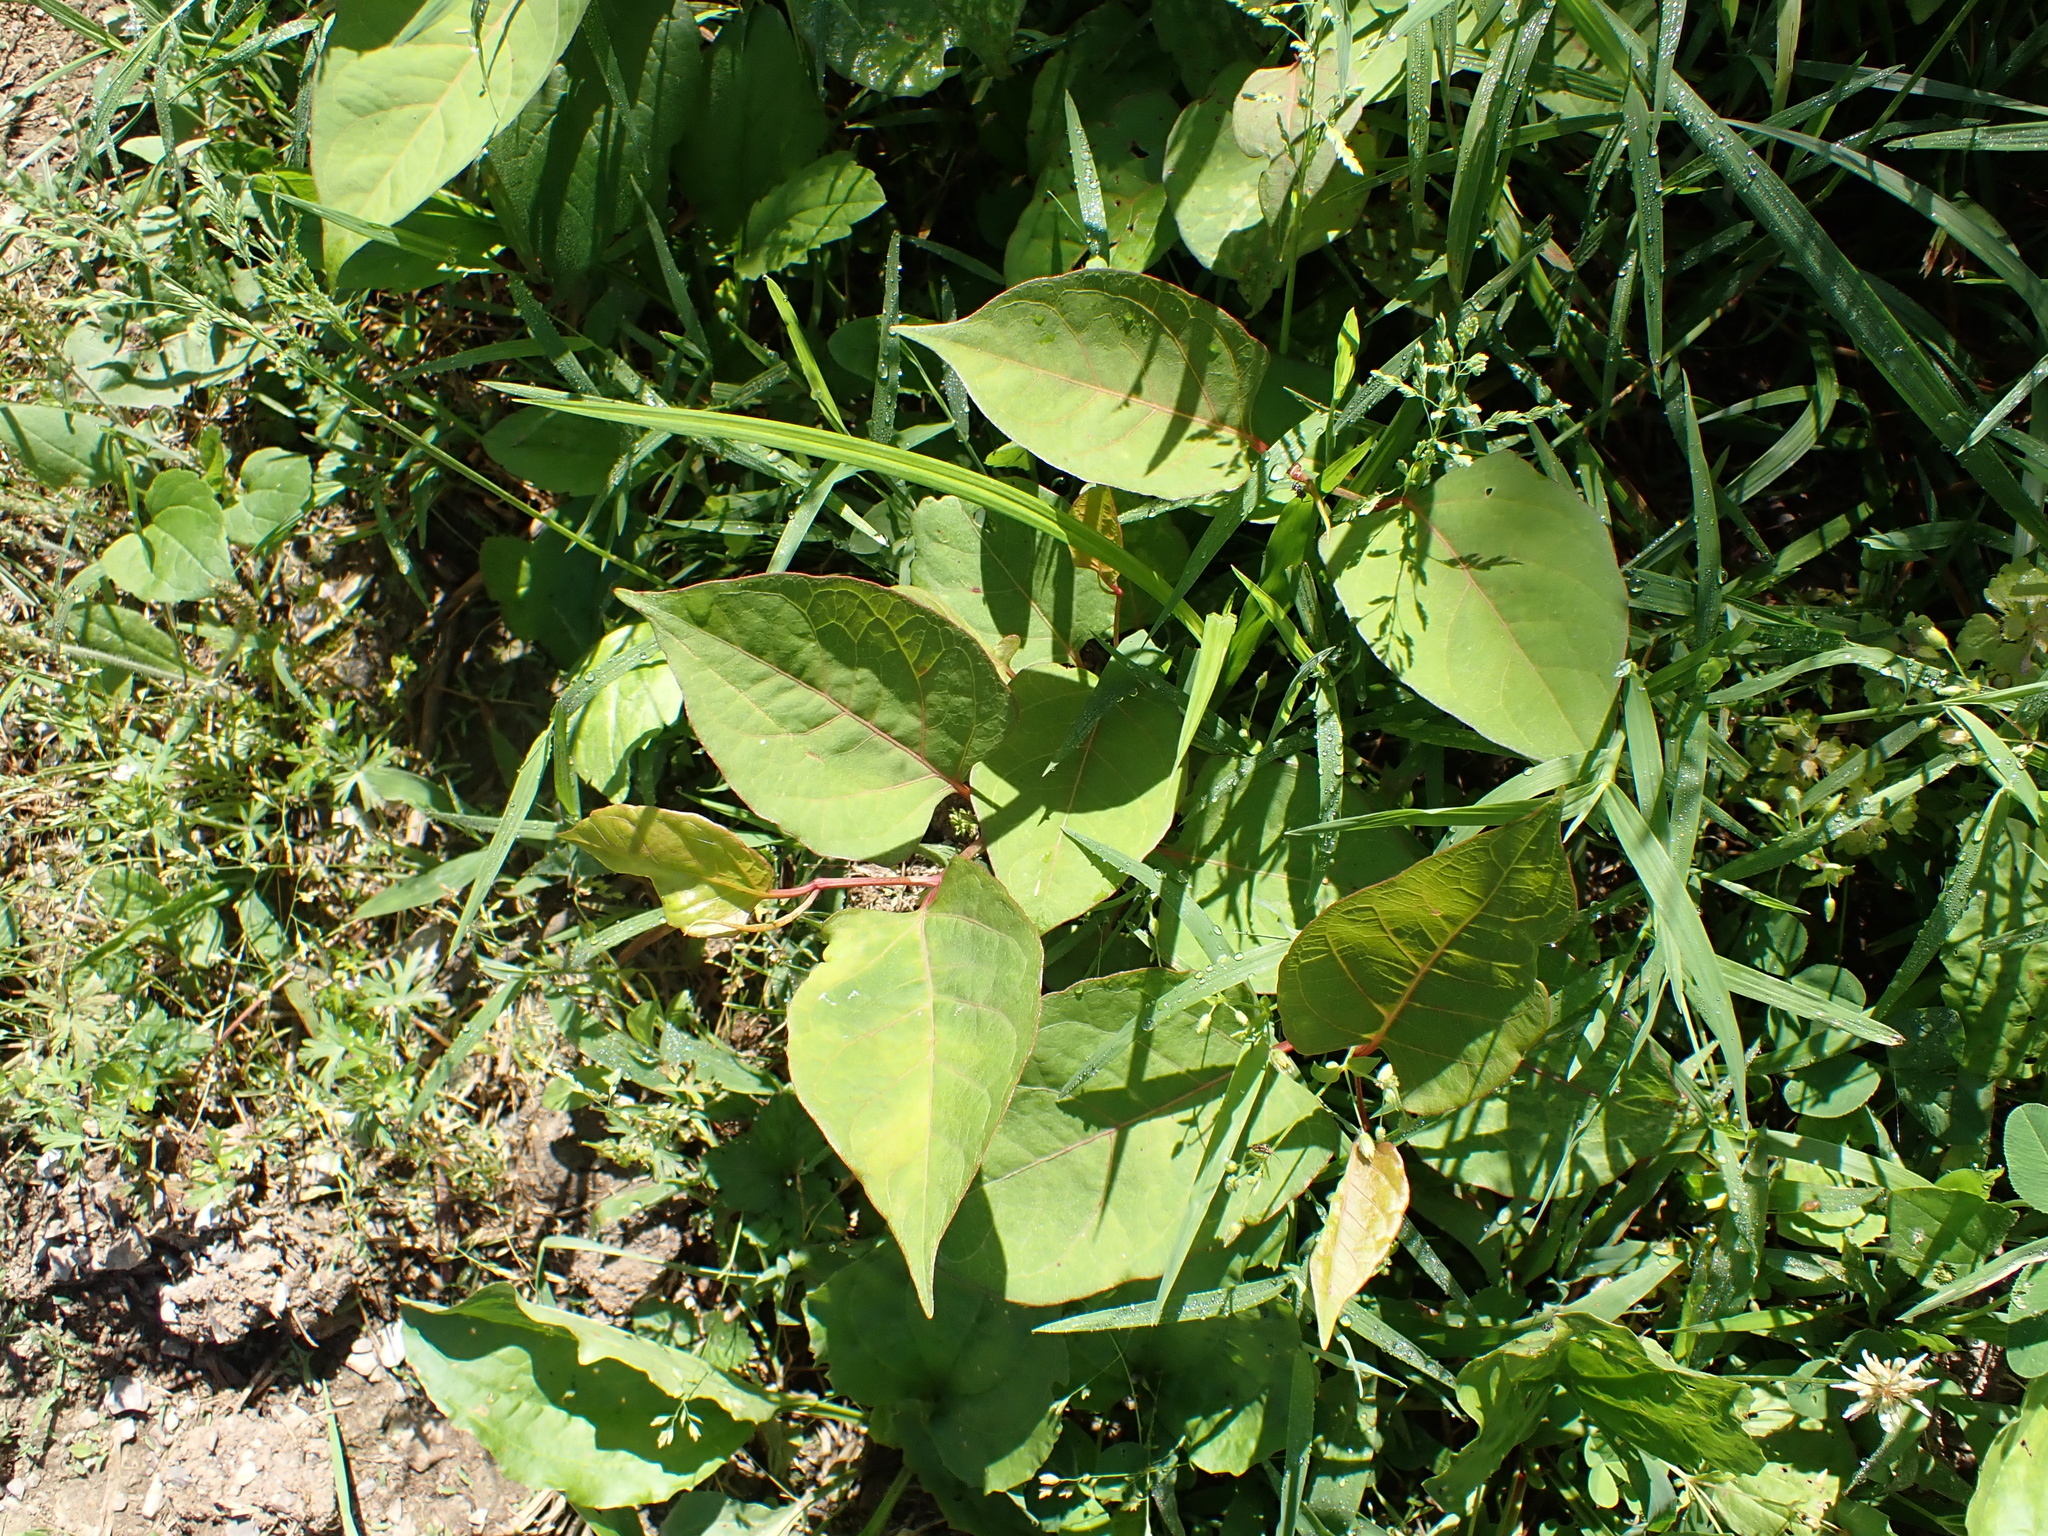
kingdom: Plantae
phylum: Tracheophyta
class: Magnoliopsida
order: Caryophyllales
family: Polygonaceae
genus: Reynoutria
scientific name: Reynoutria japonica
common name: Japanese knotweed
